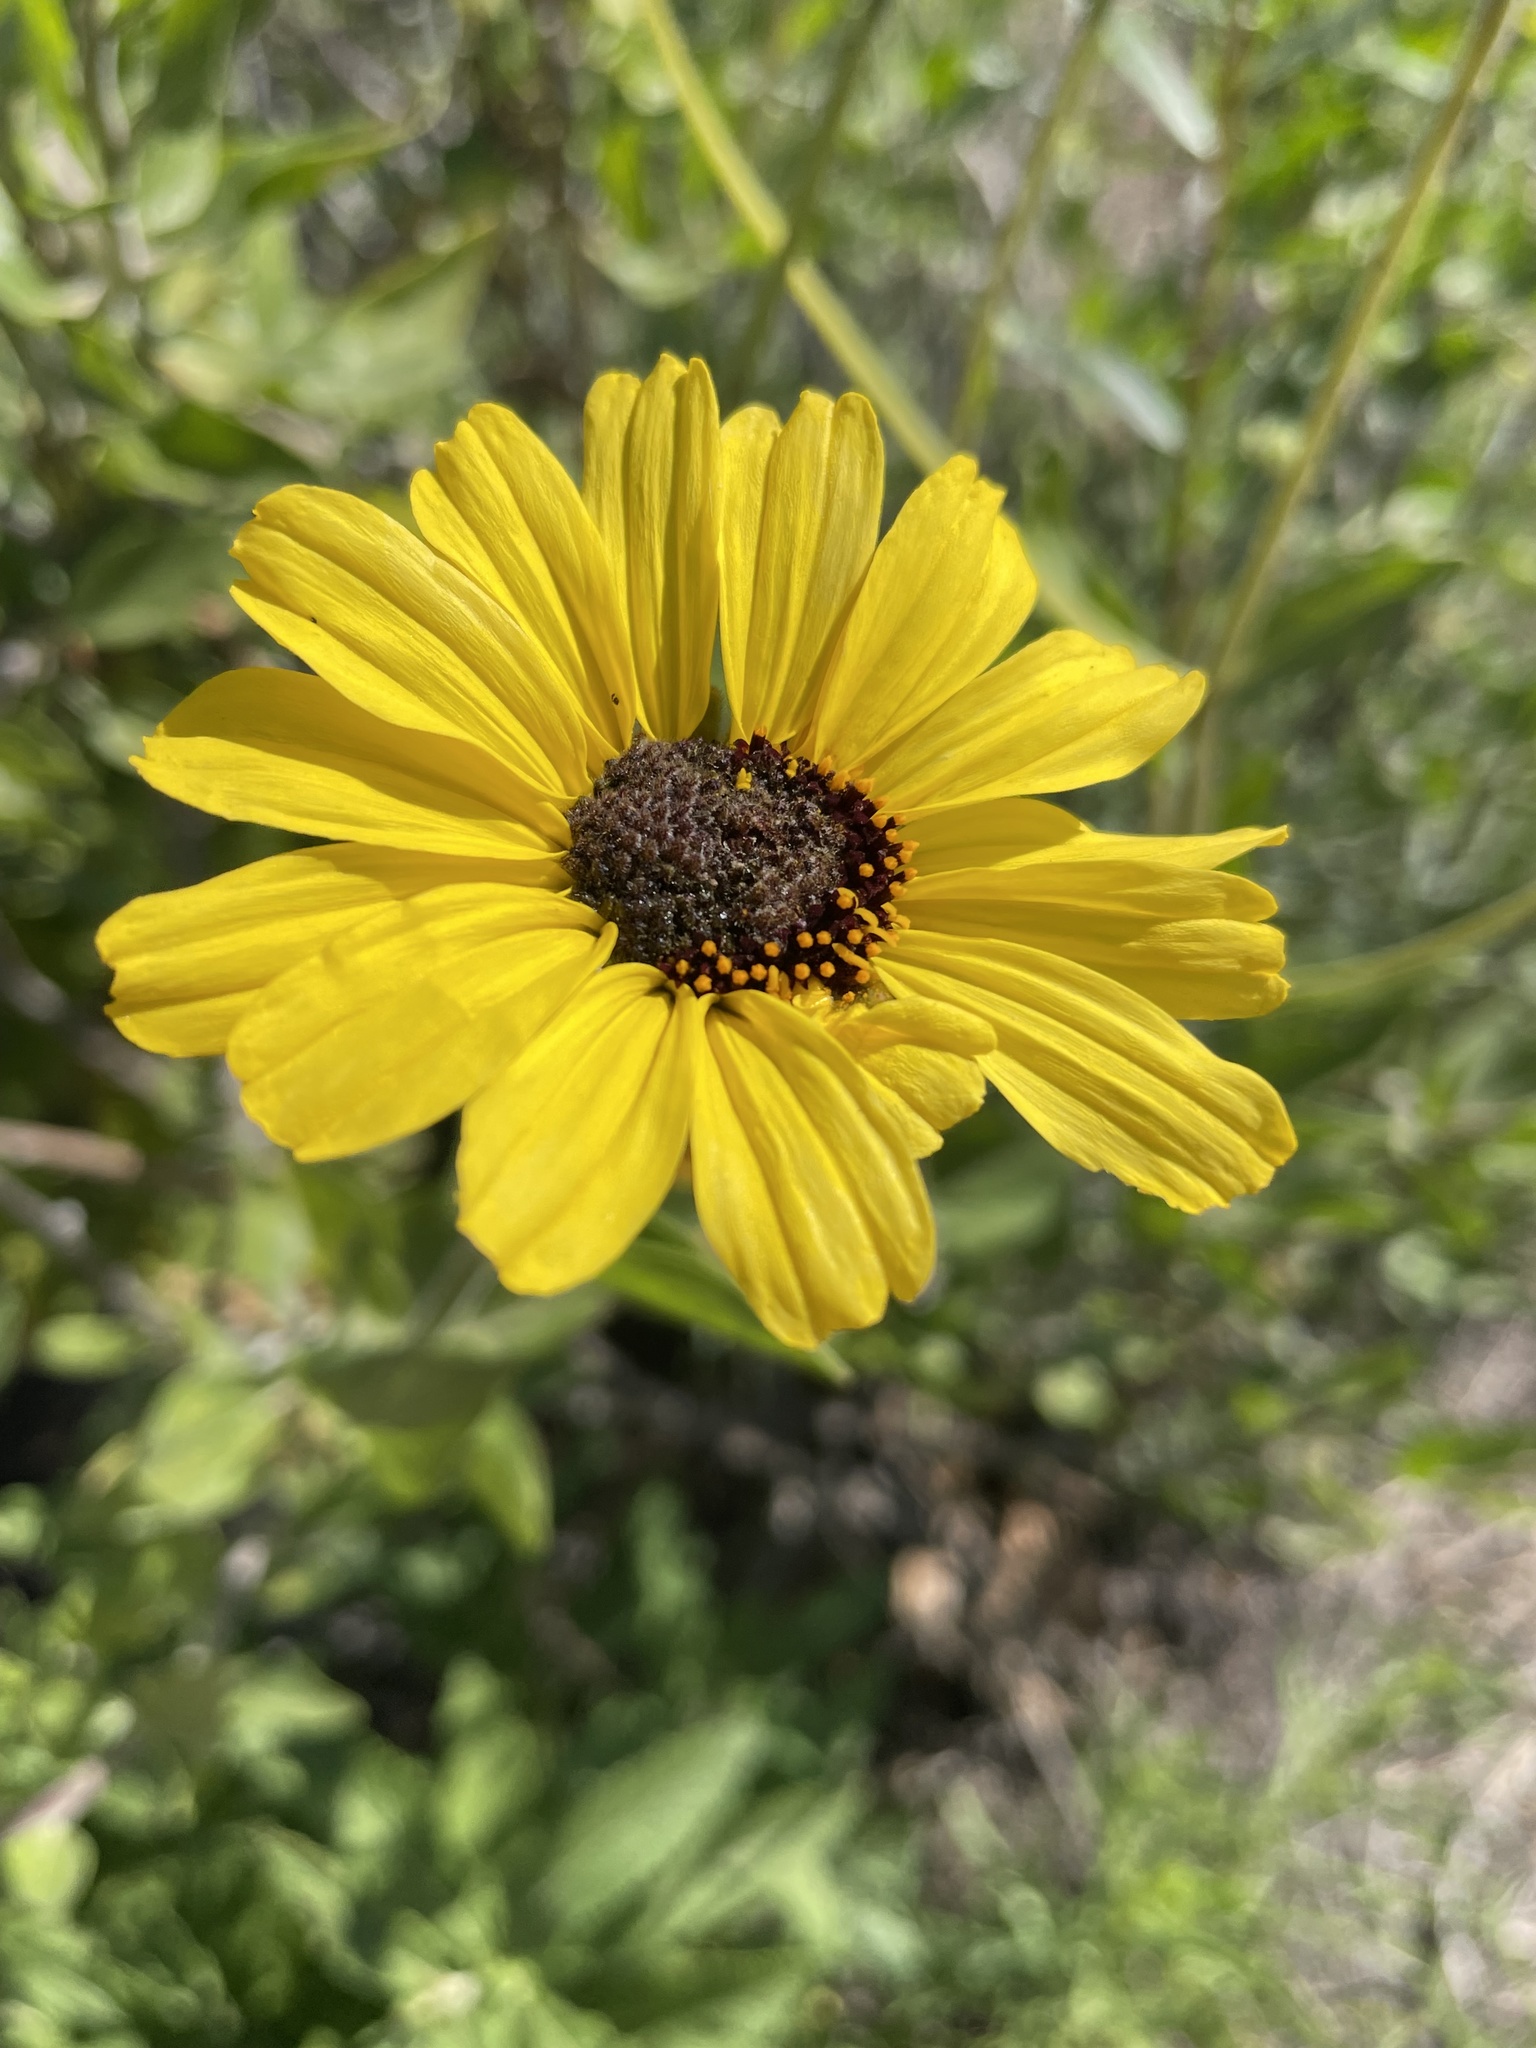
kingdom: Plantae
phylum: Tracheophyta
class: Magnoliopsida
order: Asterales
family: Asteraceae
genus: Encelia
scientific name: Encelia californica
